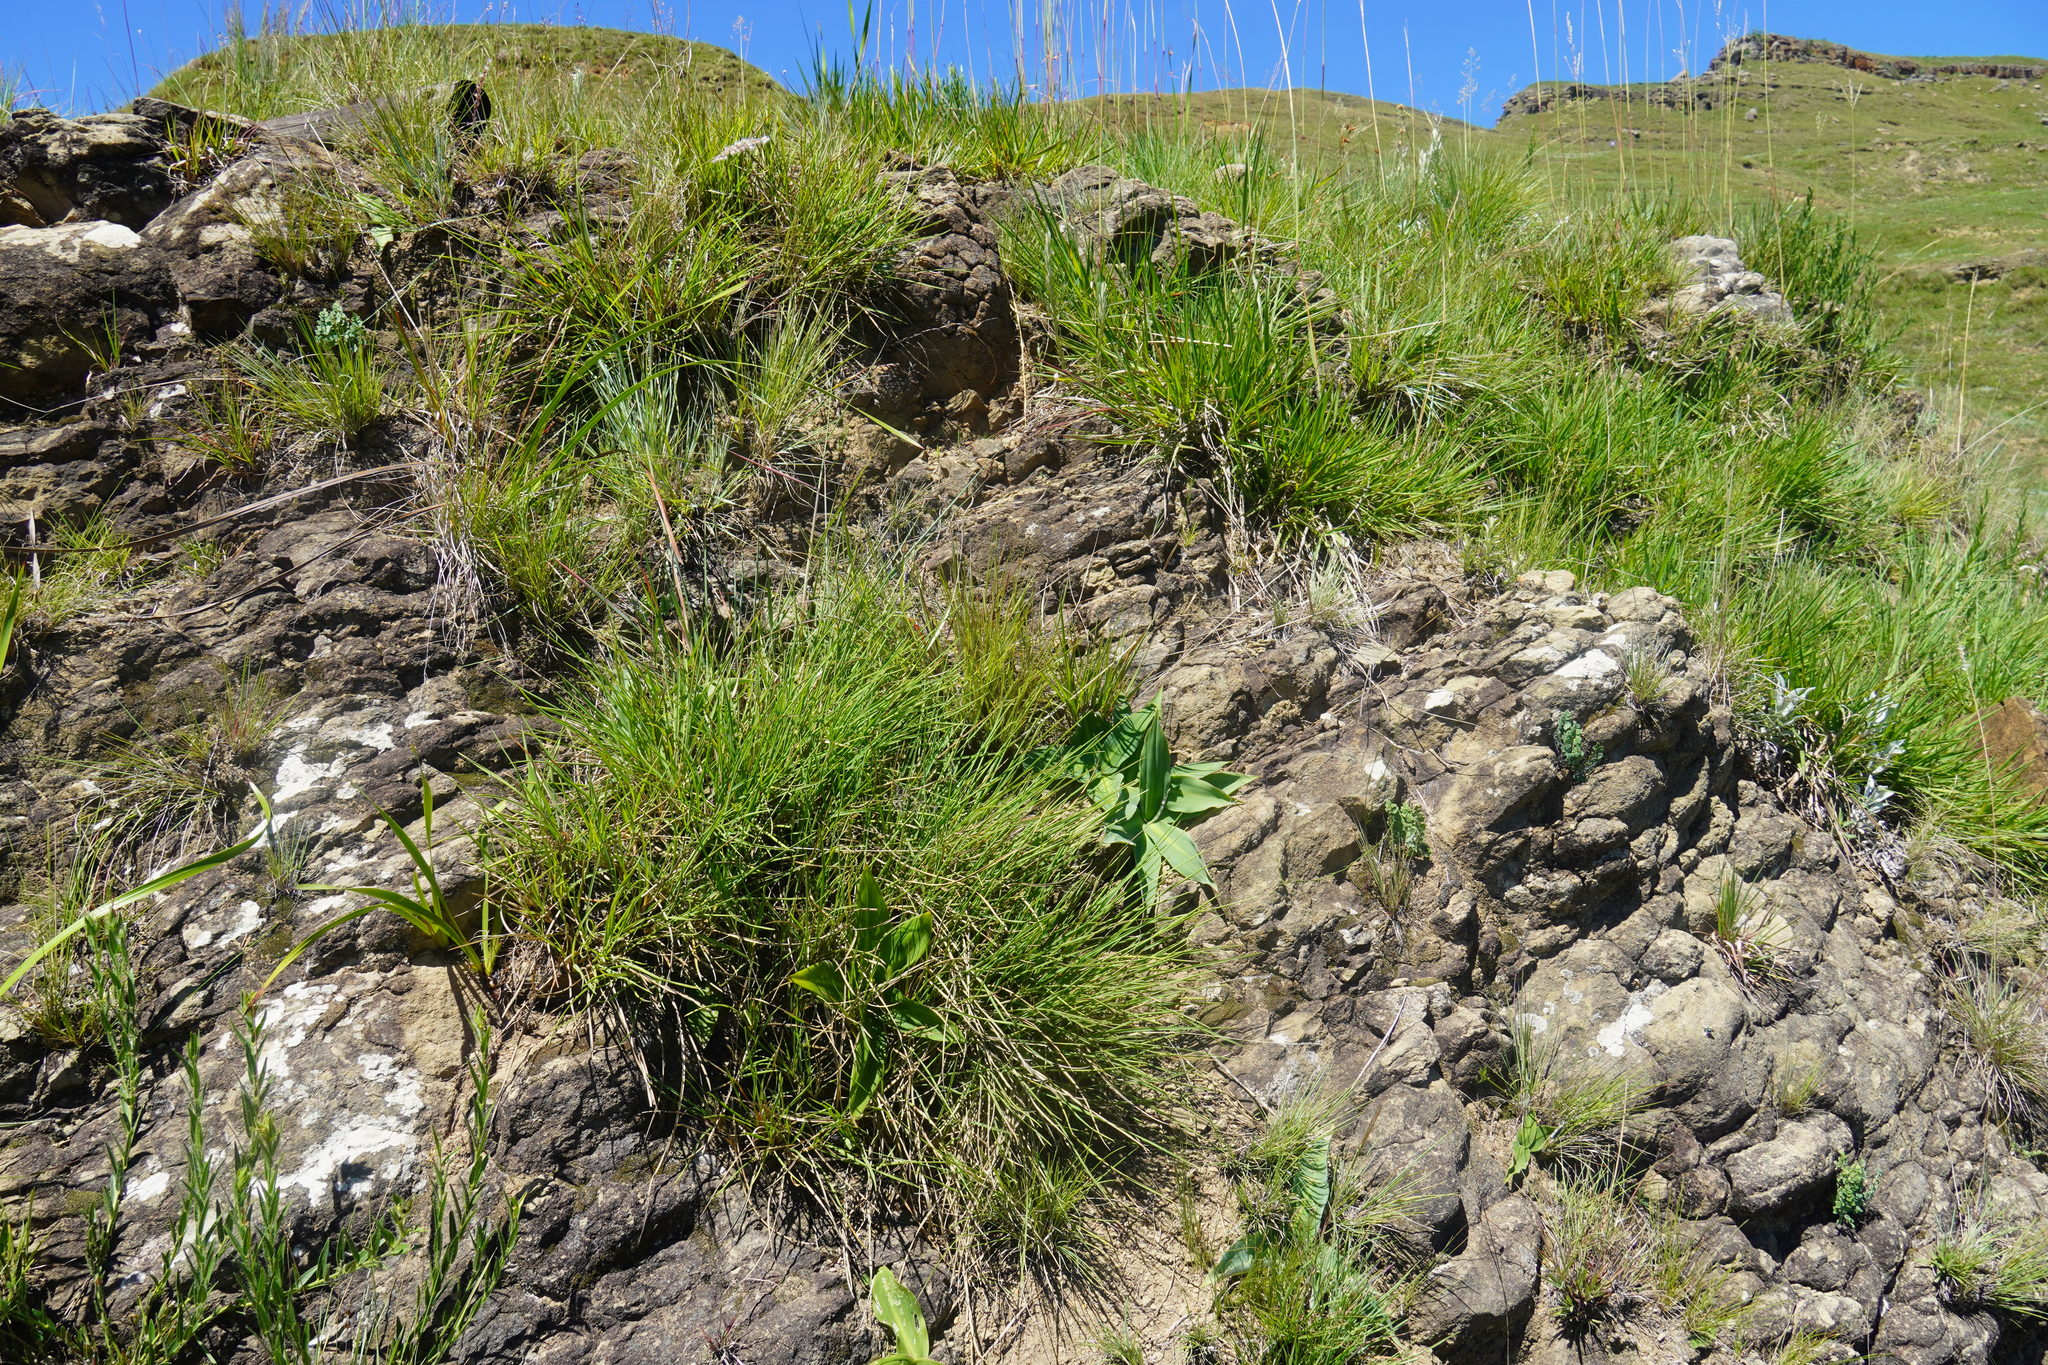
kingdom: Plantae
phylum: Tracheophyta
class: Liliopsida
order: Asparagales
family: Asparagaceae
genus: Merwilla
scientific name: Merwilla plumbea
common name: Blue-squill
